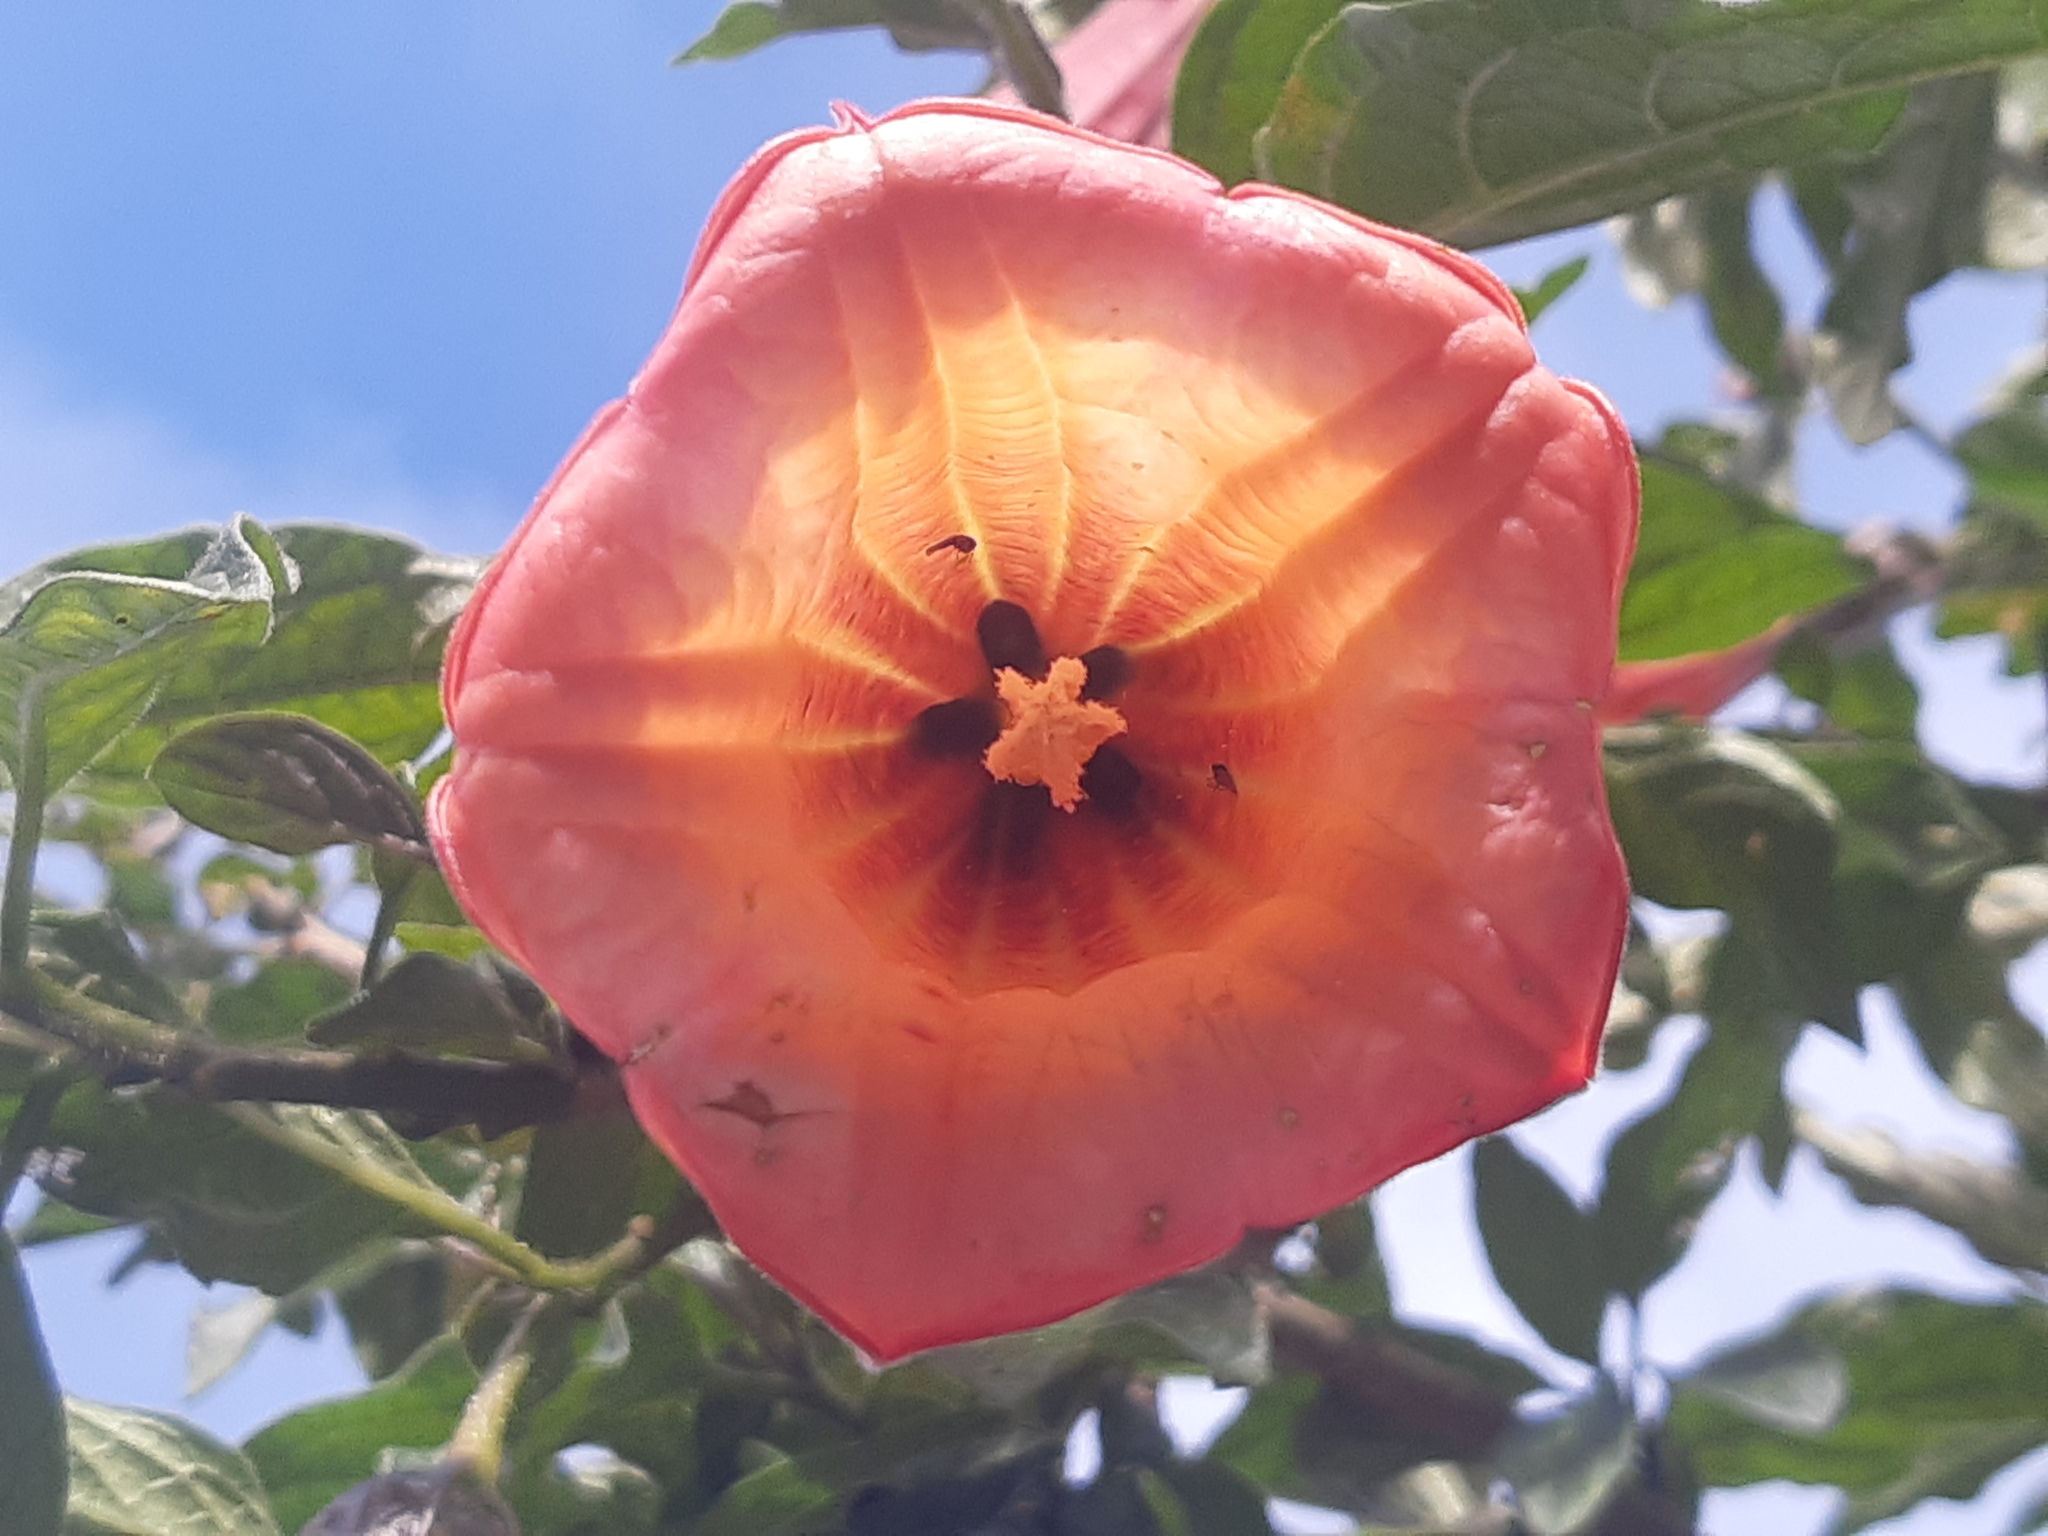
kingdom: Plantae
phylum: Tracheophyta
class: Magnoliopsida
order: Solanales
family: Solanaceae
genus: Brugmansia
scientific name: Brugmansia sanguinea
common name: Red floripontio
